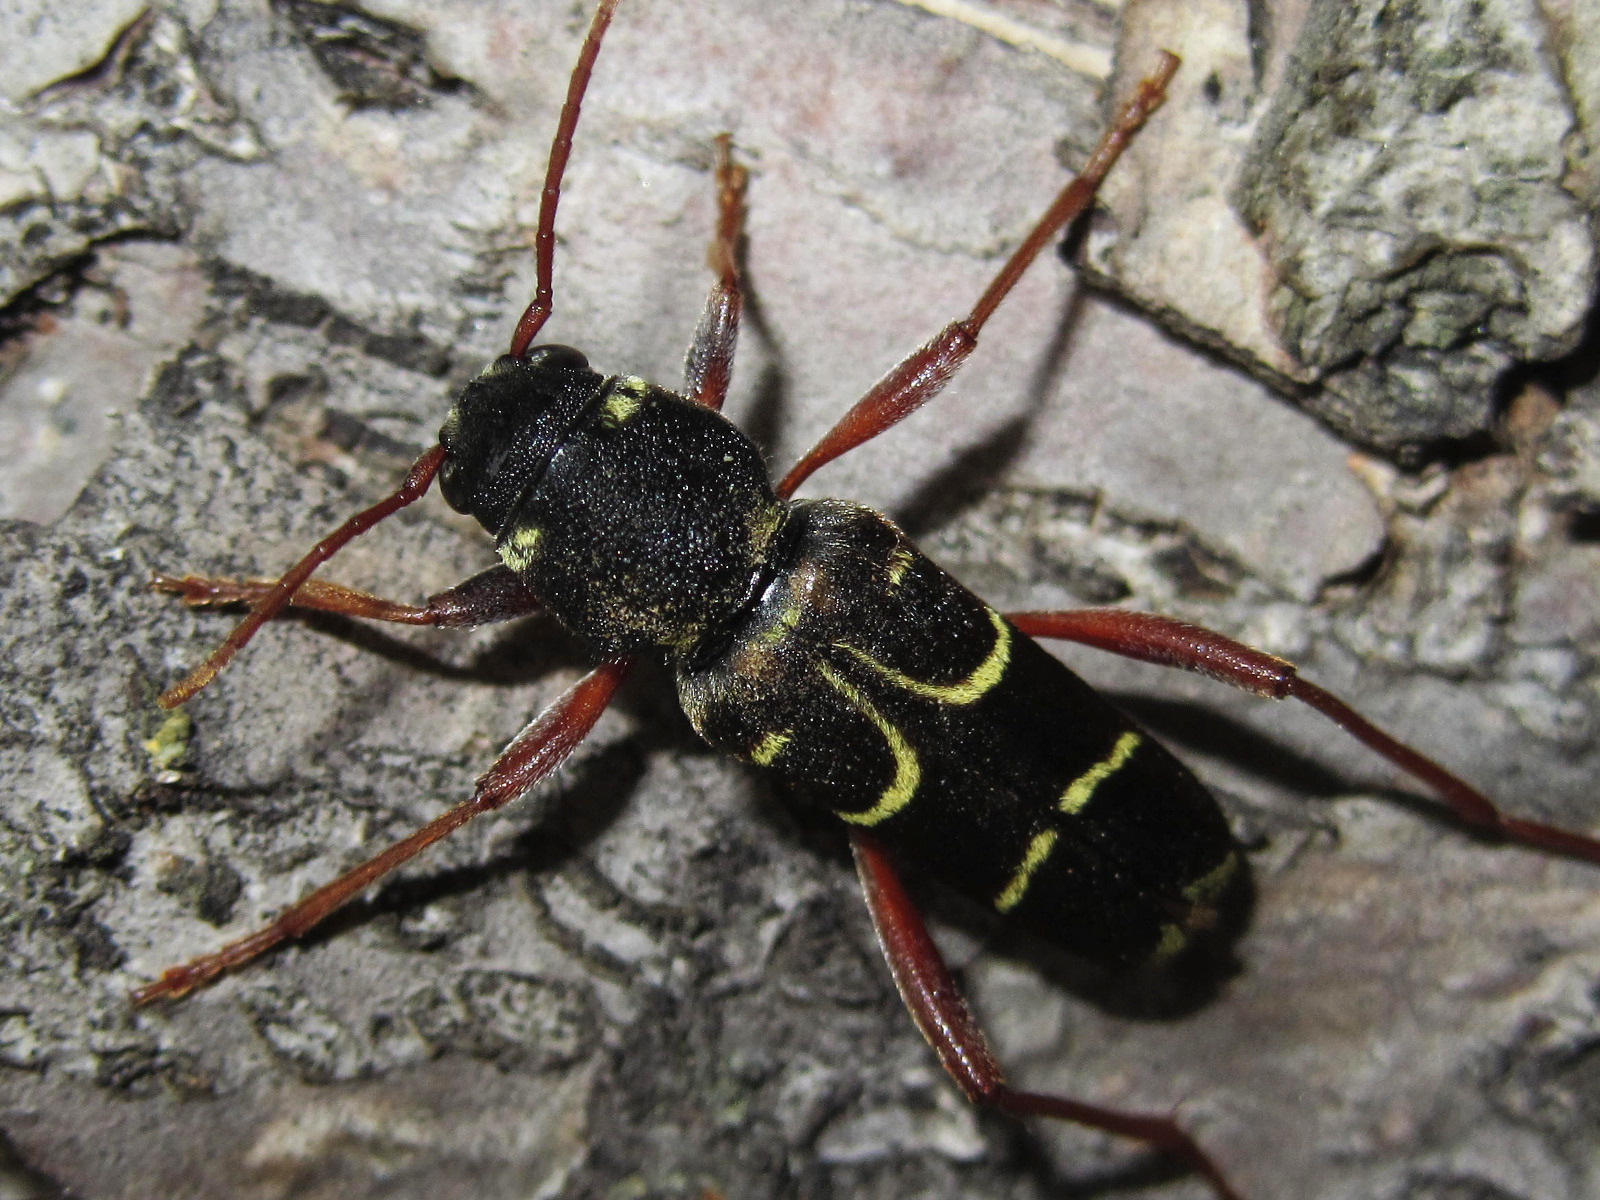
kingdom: Animalia
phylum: Arthropoda
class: Insecta
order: Coleoptera
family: Cerambycidae
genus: Xylotrechus
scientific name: Xylotrechus arvicola
